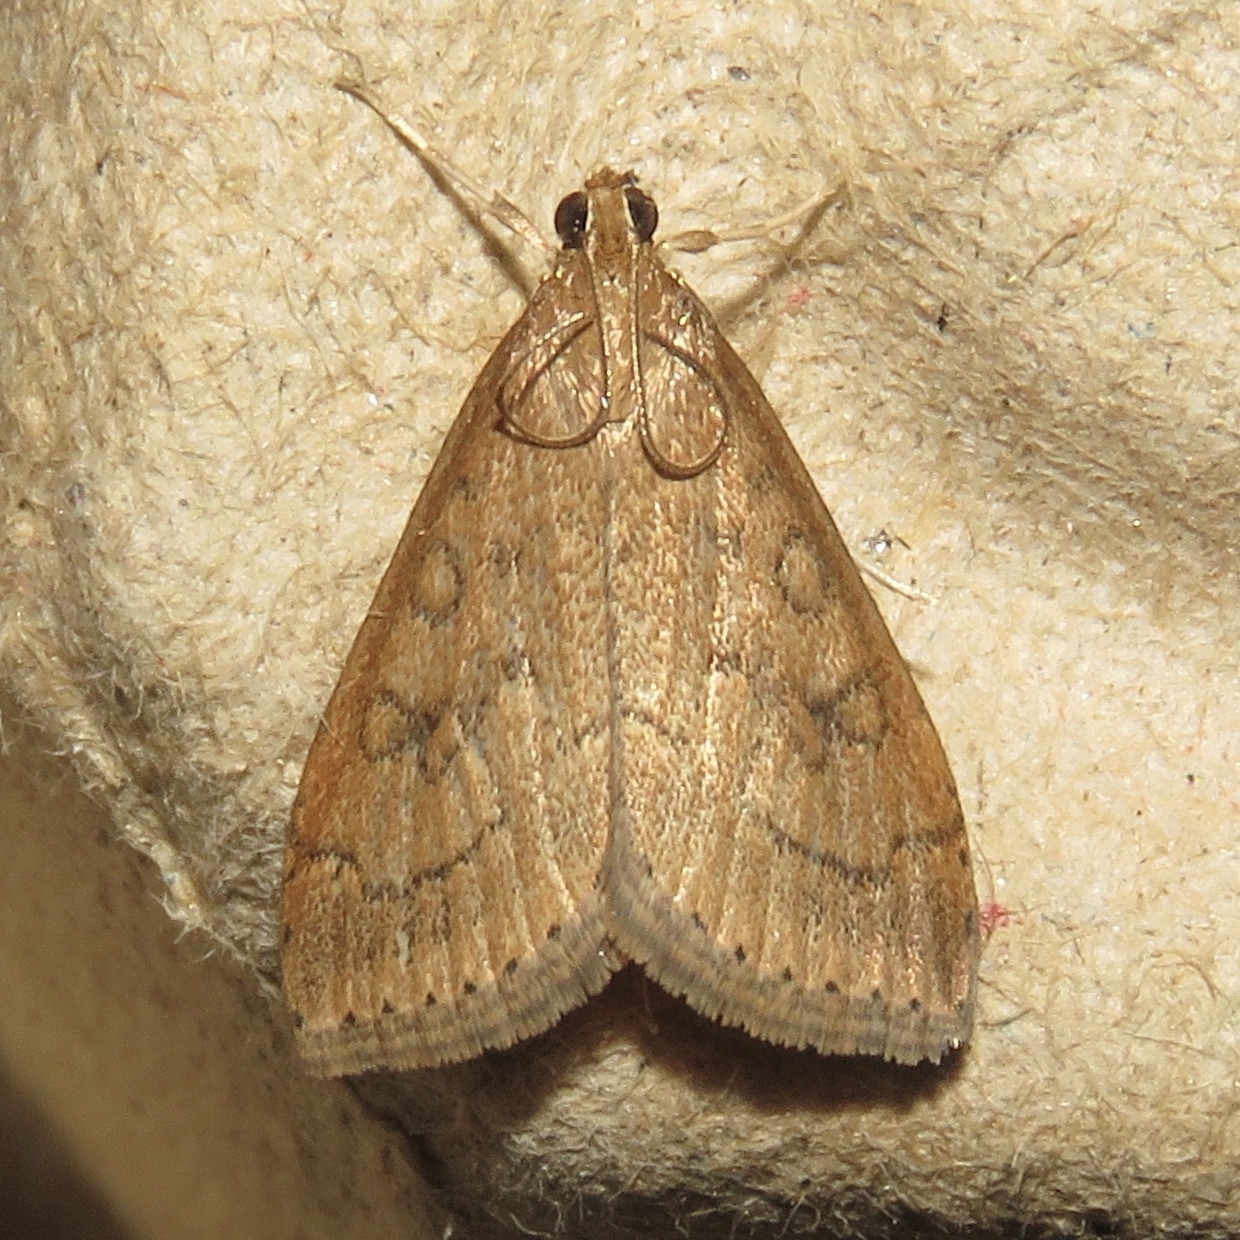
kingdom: Animalia
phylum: Arthropoda
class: Insecta
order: Lepidoptera
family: Crambidae
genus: Udea
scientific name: Udea rubigalis
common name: Celery leaftier moth
